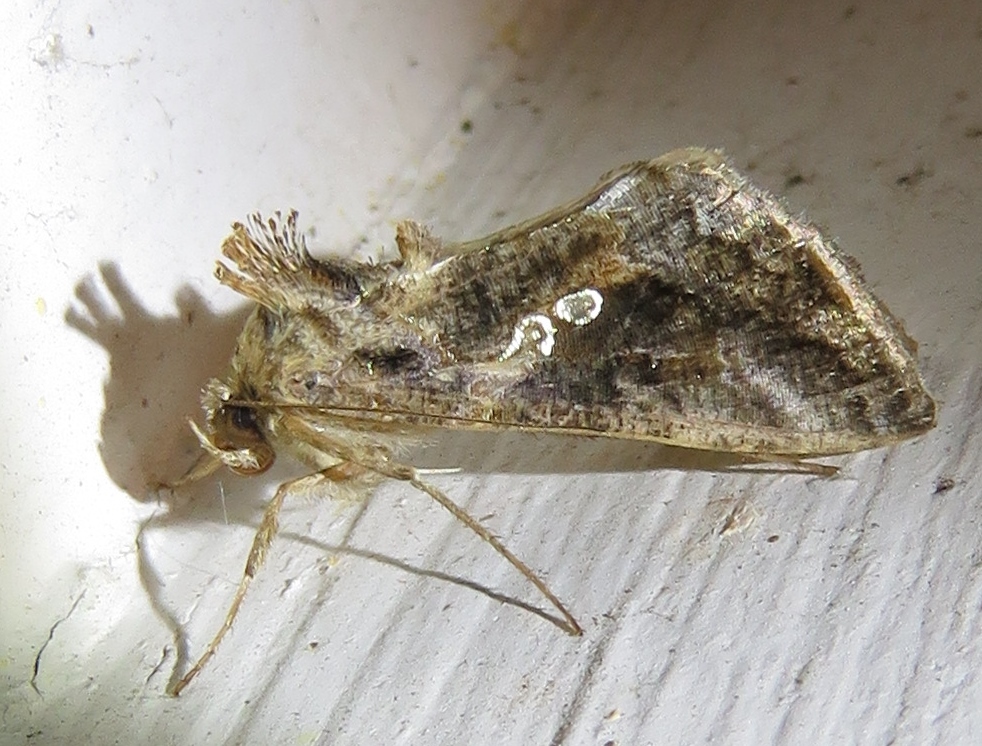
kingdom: Animalia
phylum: Arthropoda
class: Insecta
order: Lepidoptera
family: Noctuidae
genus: Chrysodeixis
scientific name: Chrysodeixis includens
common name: Cutworm moth
